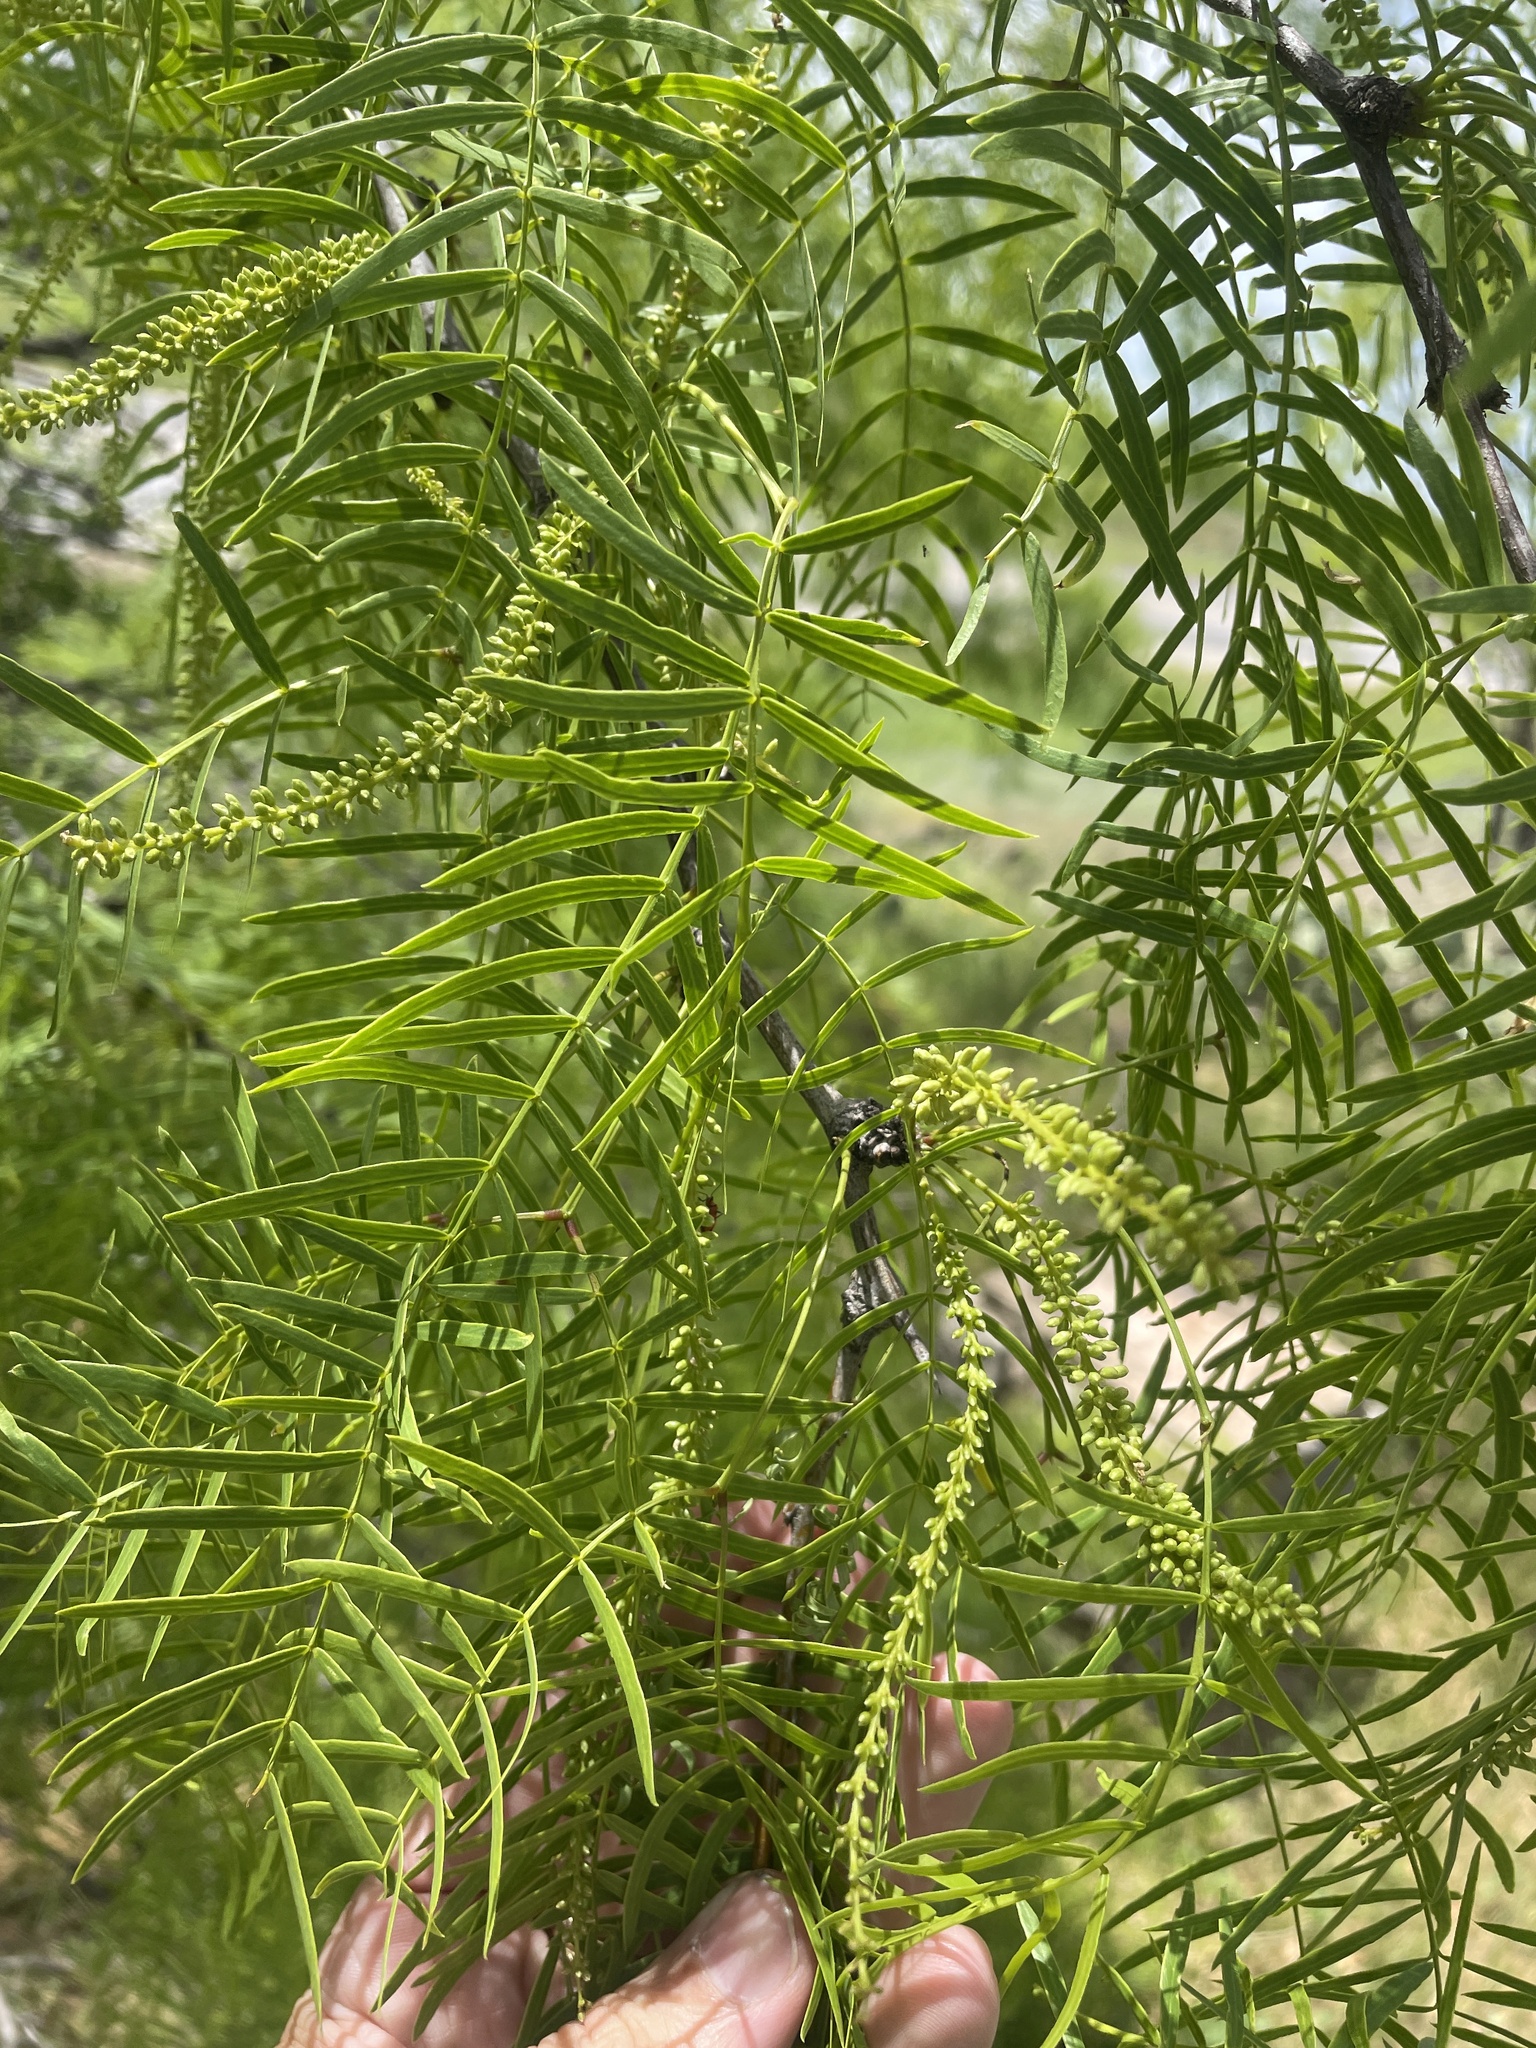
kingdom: Plantae
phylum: Tracheophyta
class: Magnoliopsida
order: Fabales
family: Fabaceae
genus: Prosopis
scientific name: Prosopis glandulosa
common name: Honey mesquite
